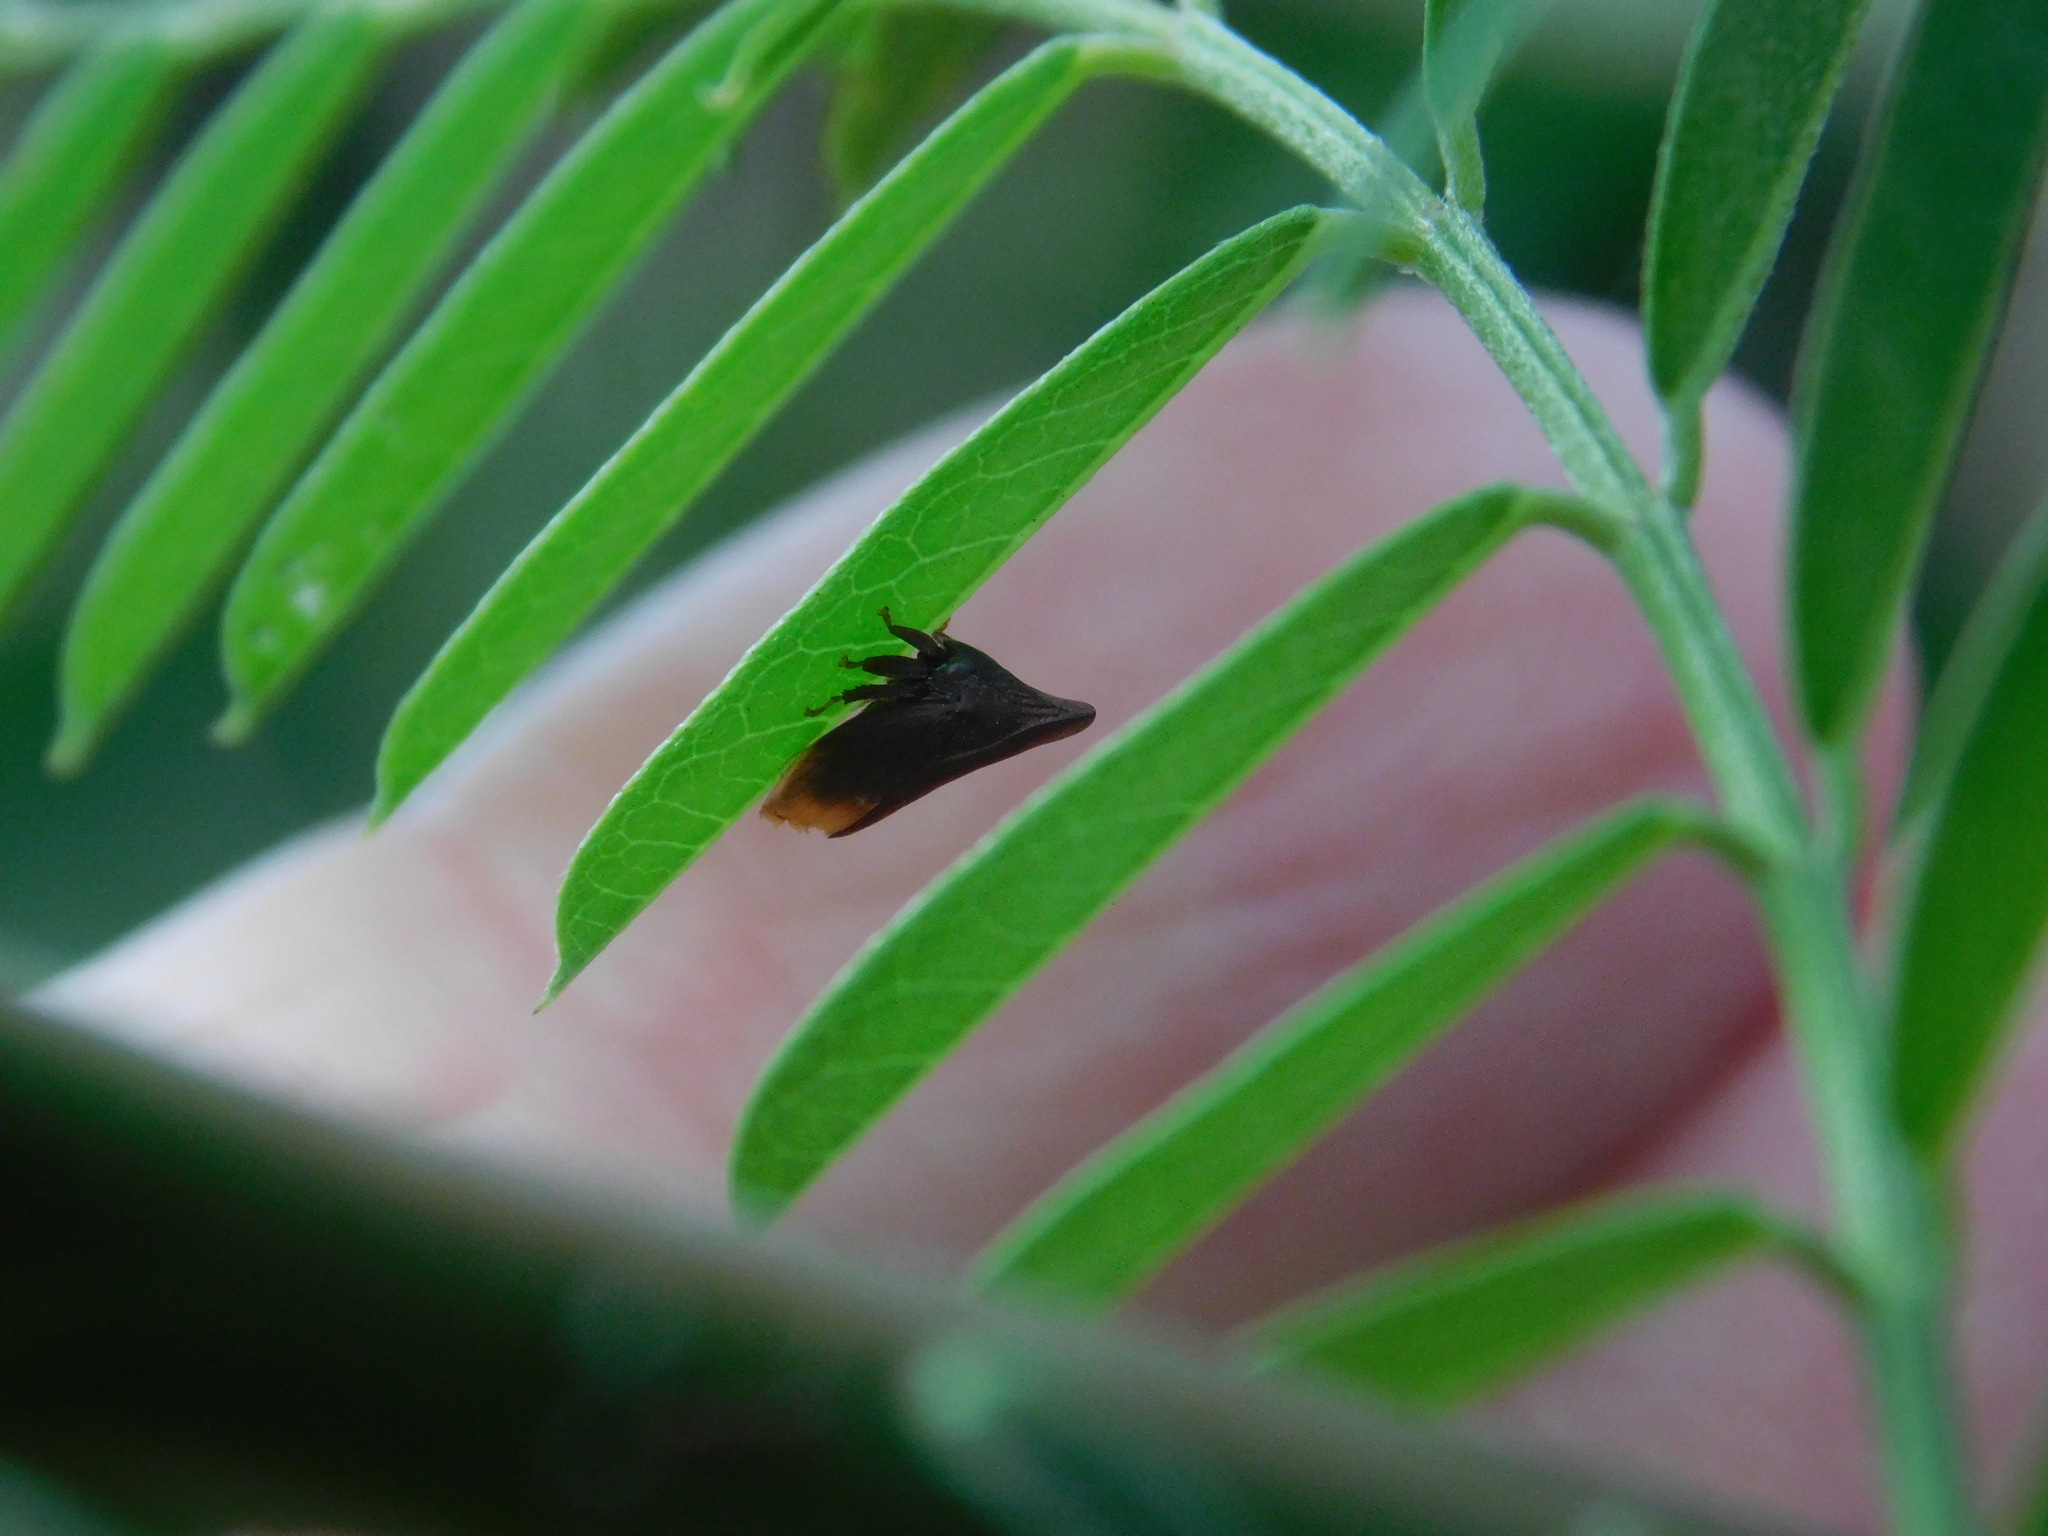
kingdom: Animalia
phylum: Arthropoda
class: Insecta
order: Hemiptera
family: Membracidae
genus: Enchenopa
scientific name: Enchenopa monoceros
